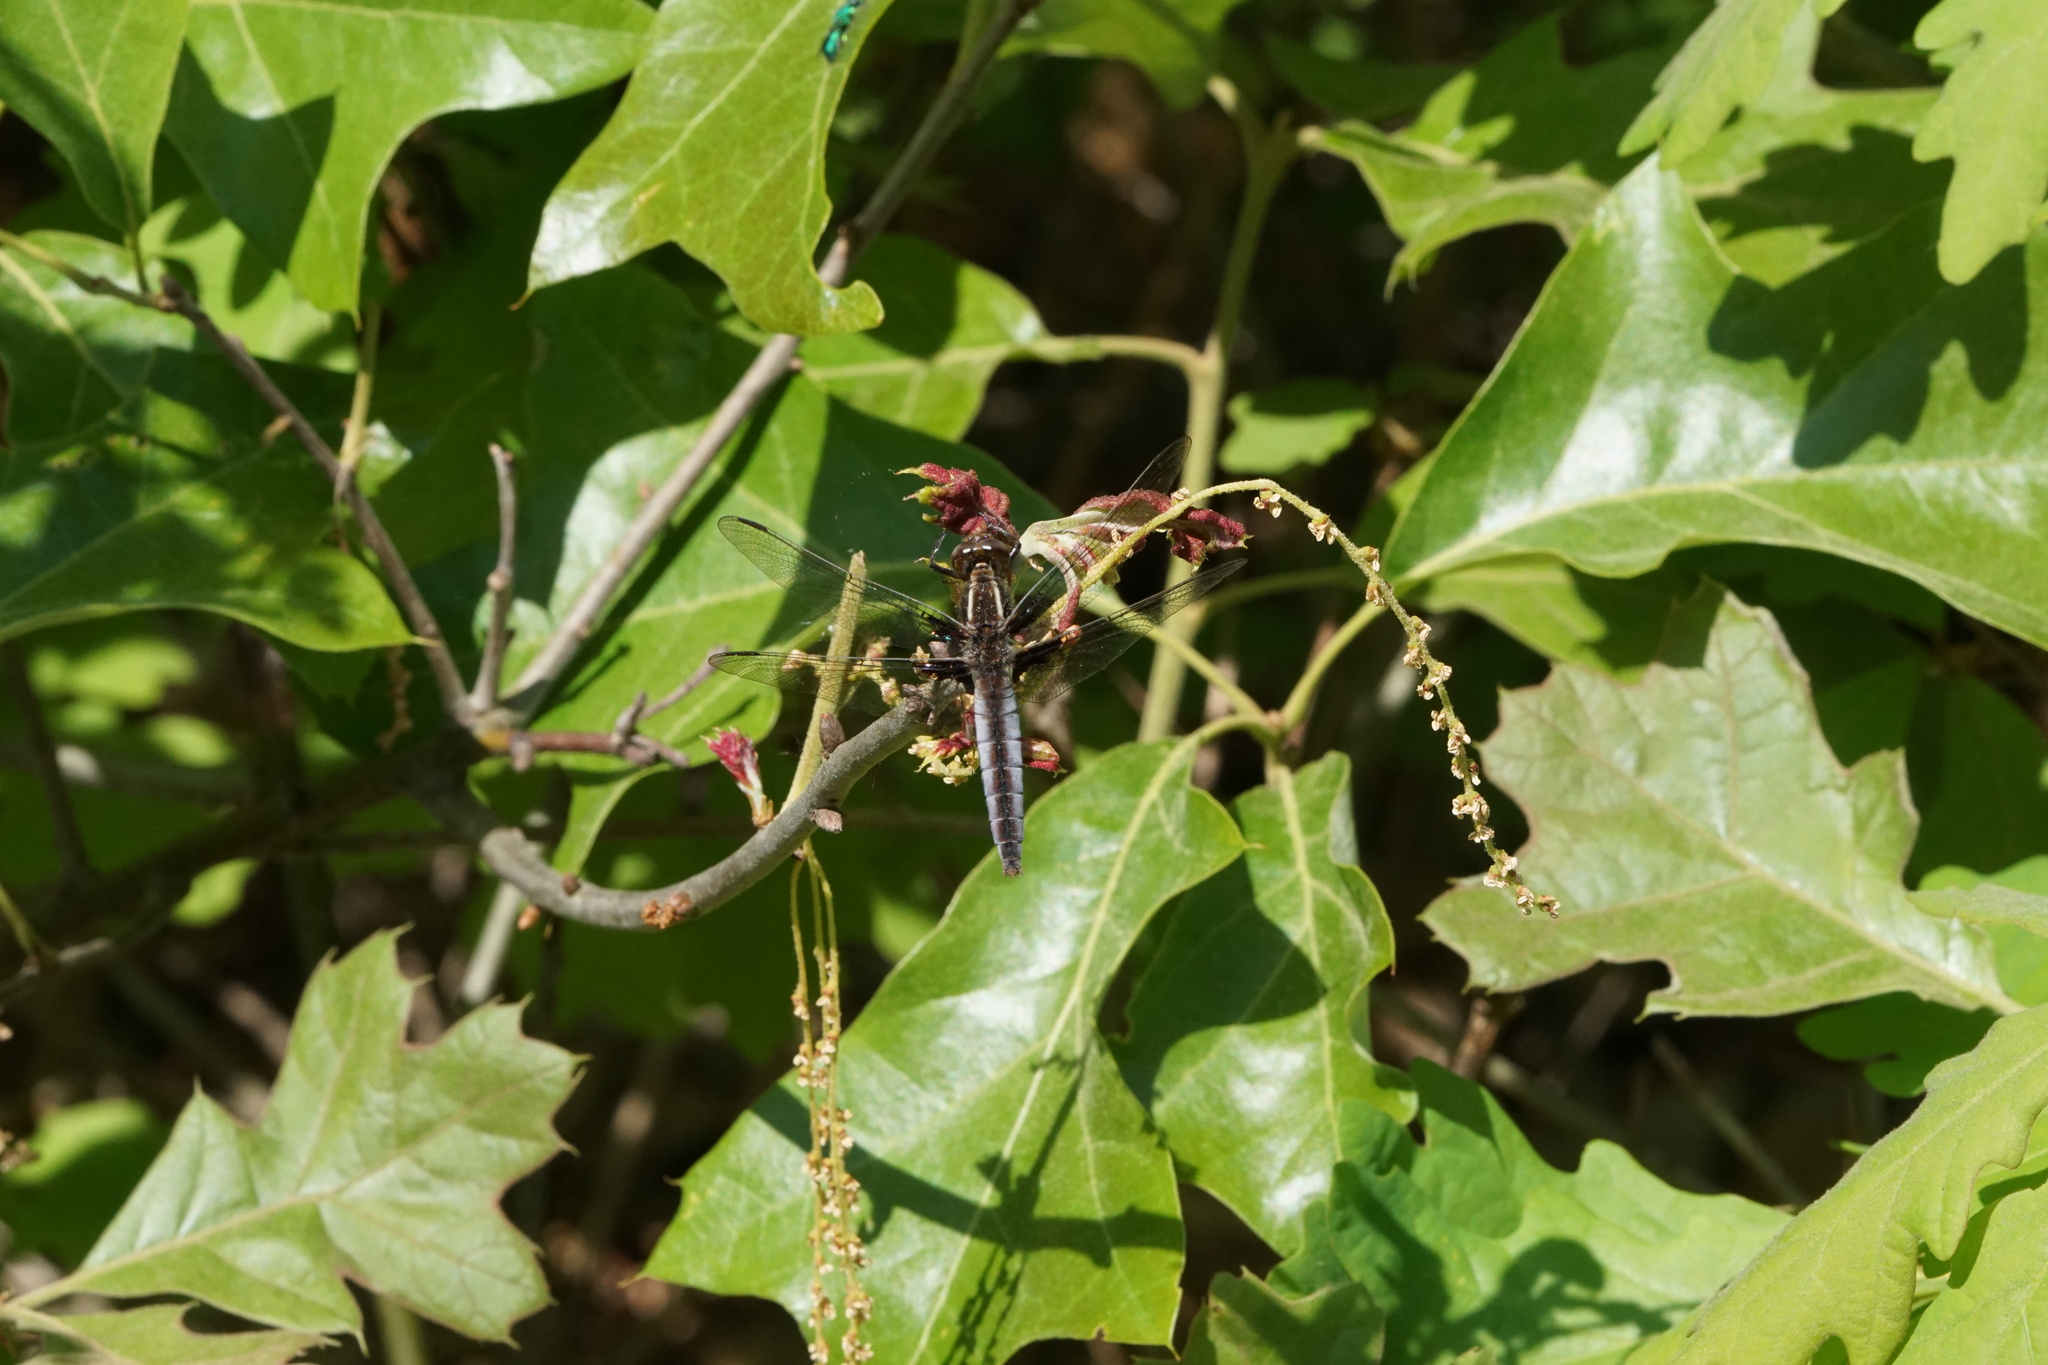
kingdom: Animalia
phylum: Arthropoda
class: Insecta
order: Odonata
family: Libellulidae
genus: Ladona
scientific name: Ladona exusta
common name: Libellule embrasée
